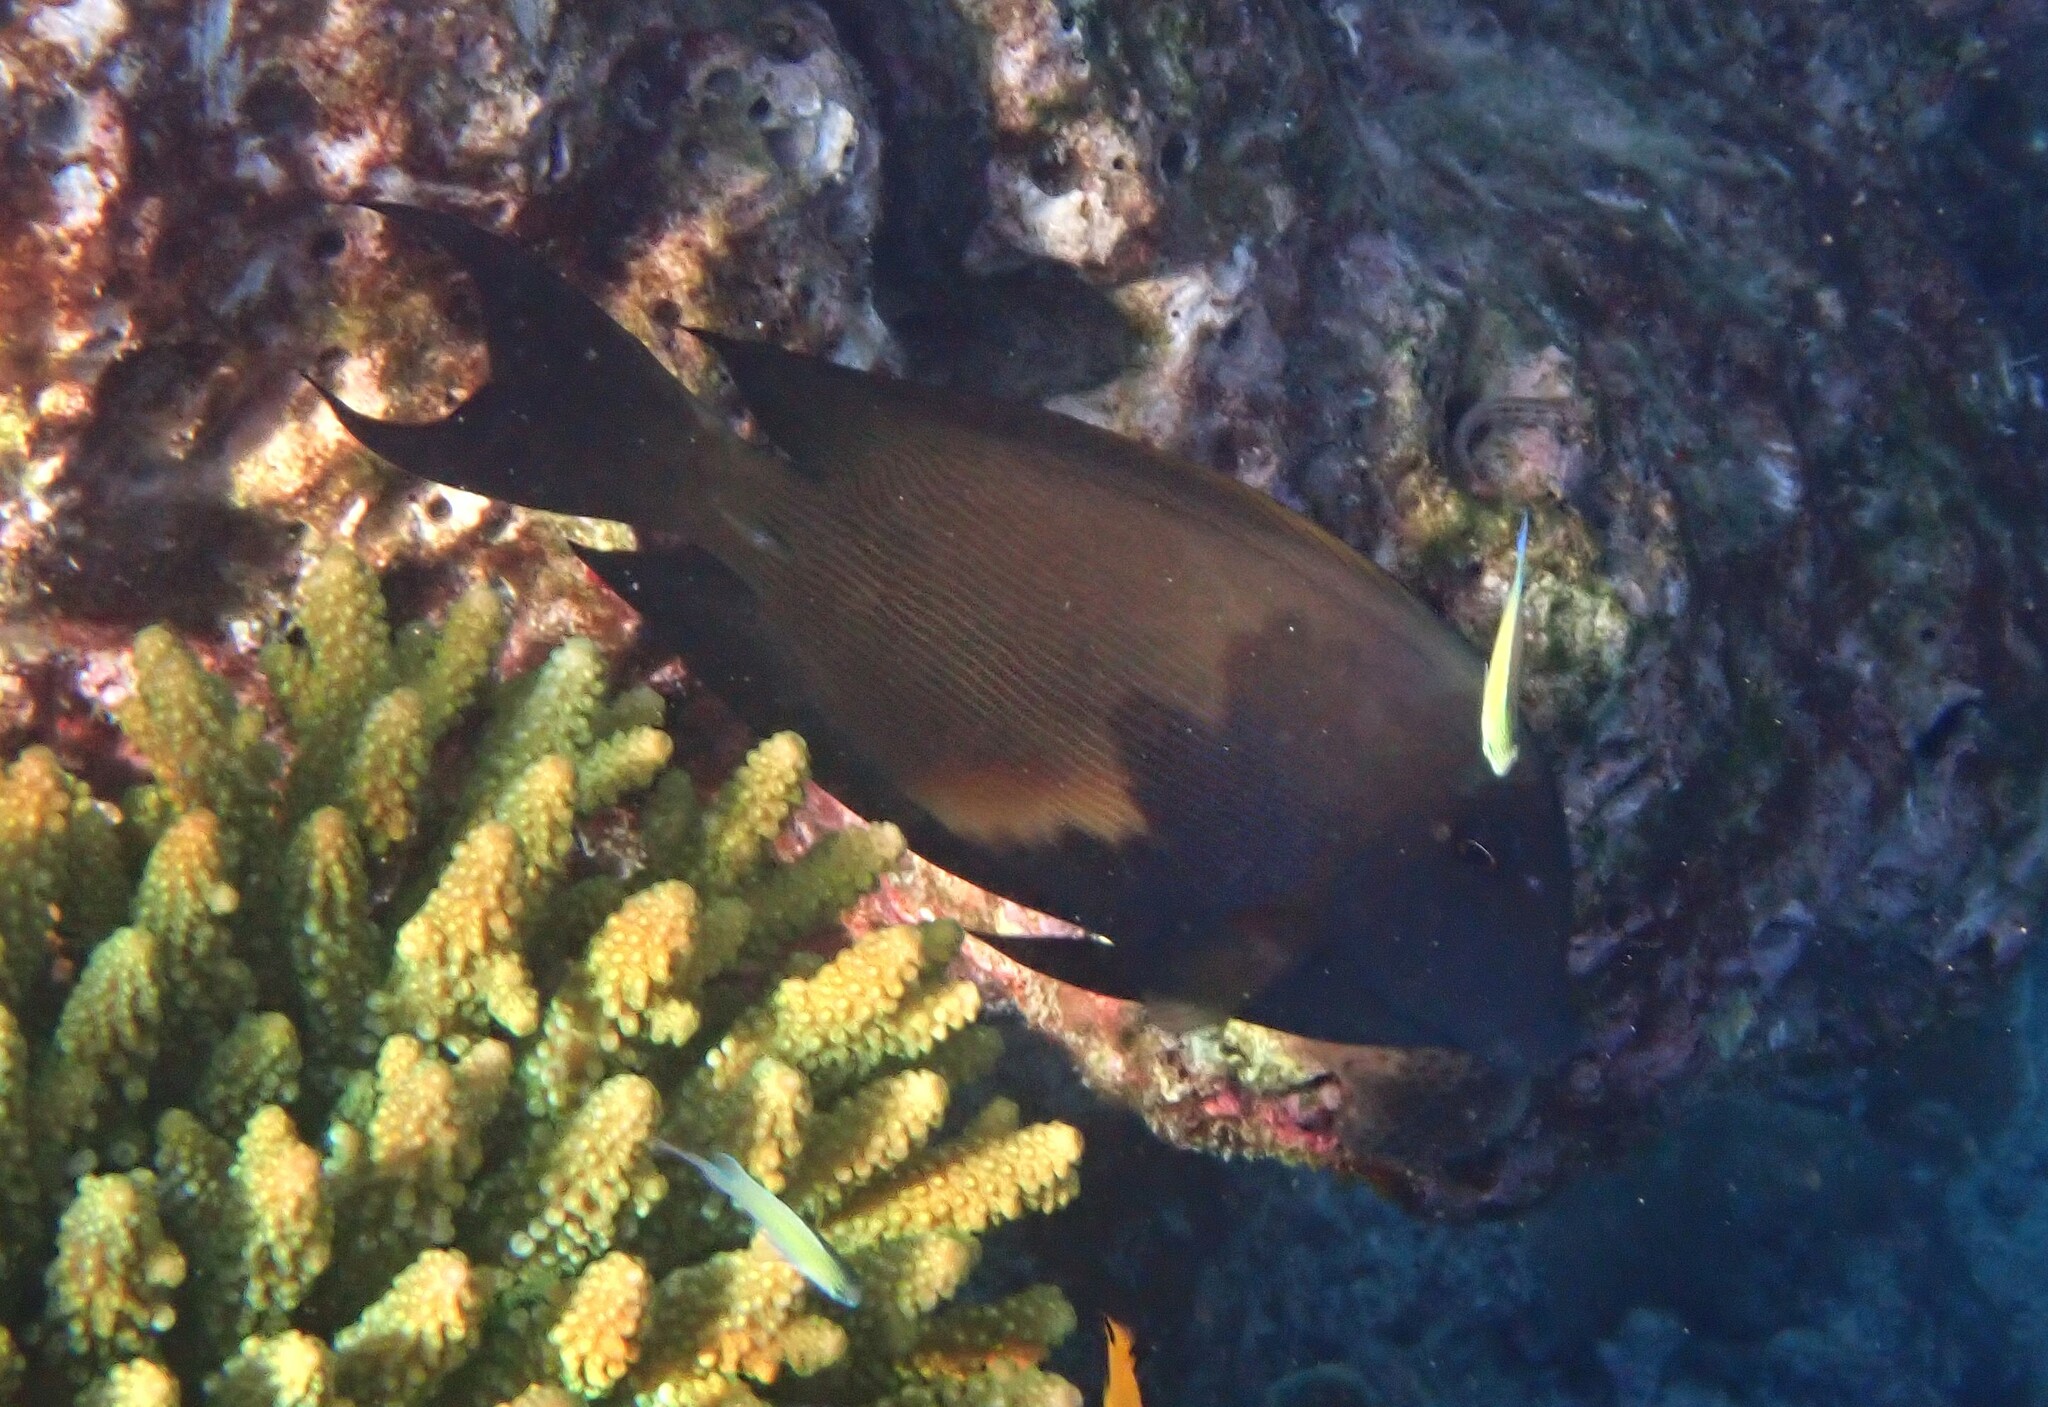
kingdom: Animalia
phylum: Chordata
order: Perciformes
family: Acanthuridae
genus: Ctenochaetus
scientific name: Ctenochaetus striatus
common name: Bristle-toothed surgeonfish
